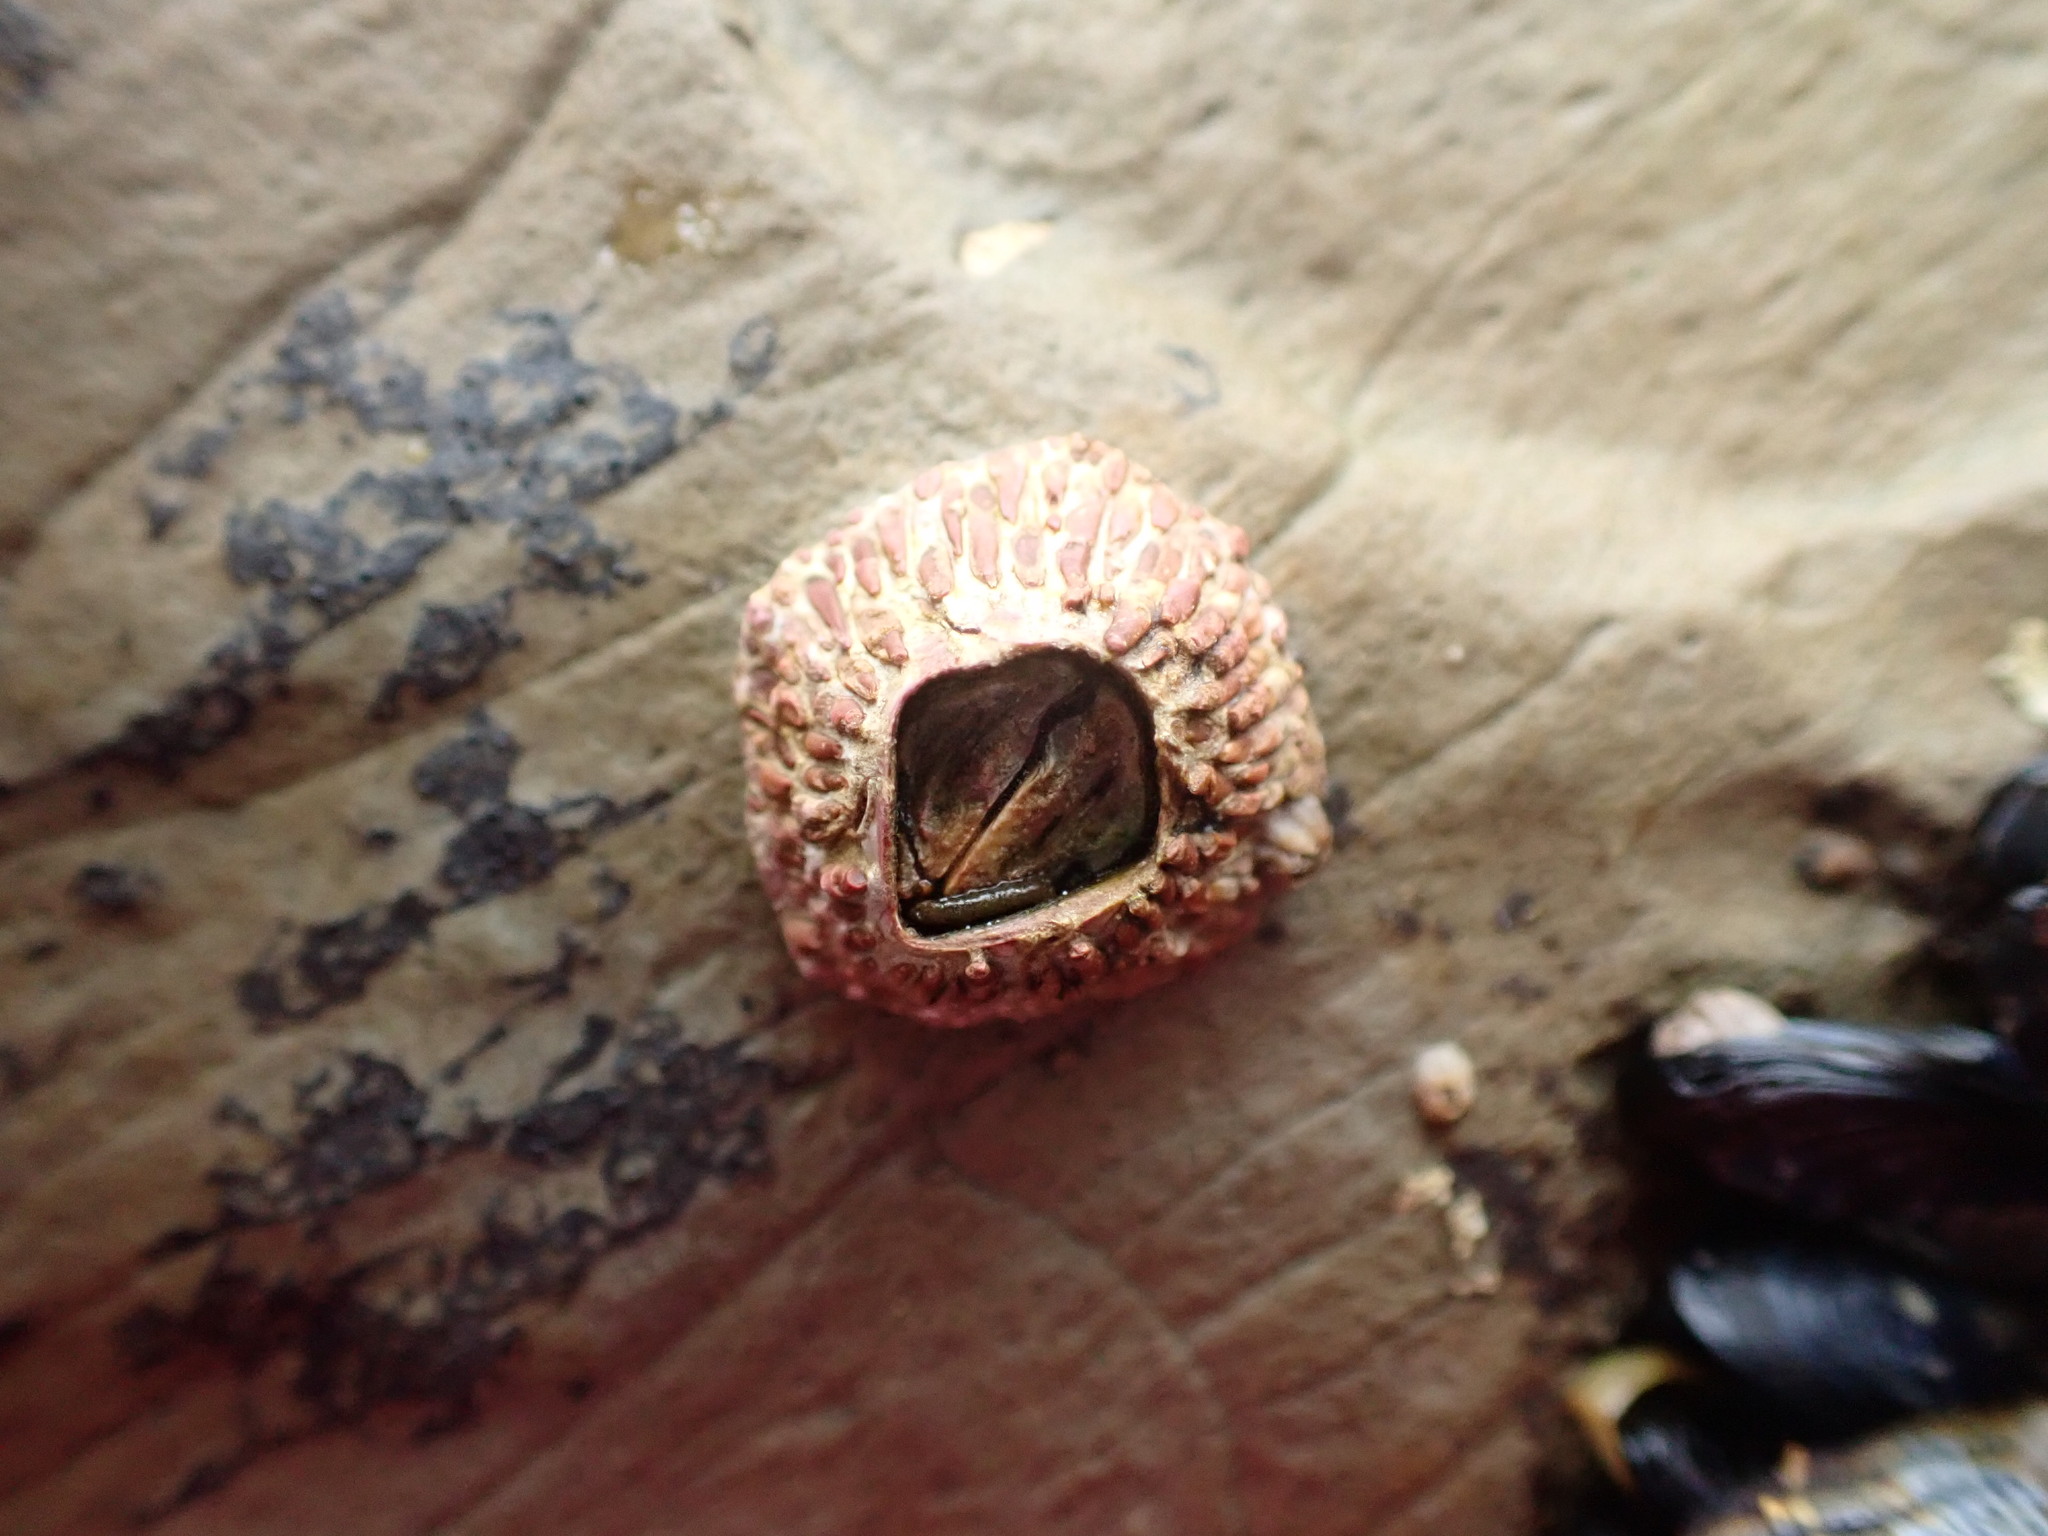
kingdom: Animalia
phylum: Arthropoda
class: Maxillopoda
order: Sessilia
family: Tetraclitidae
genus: Tetraclita
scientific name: Tetraclita rubescens
